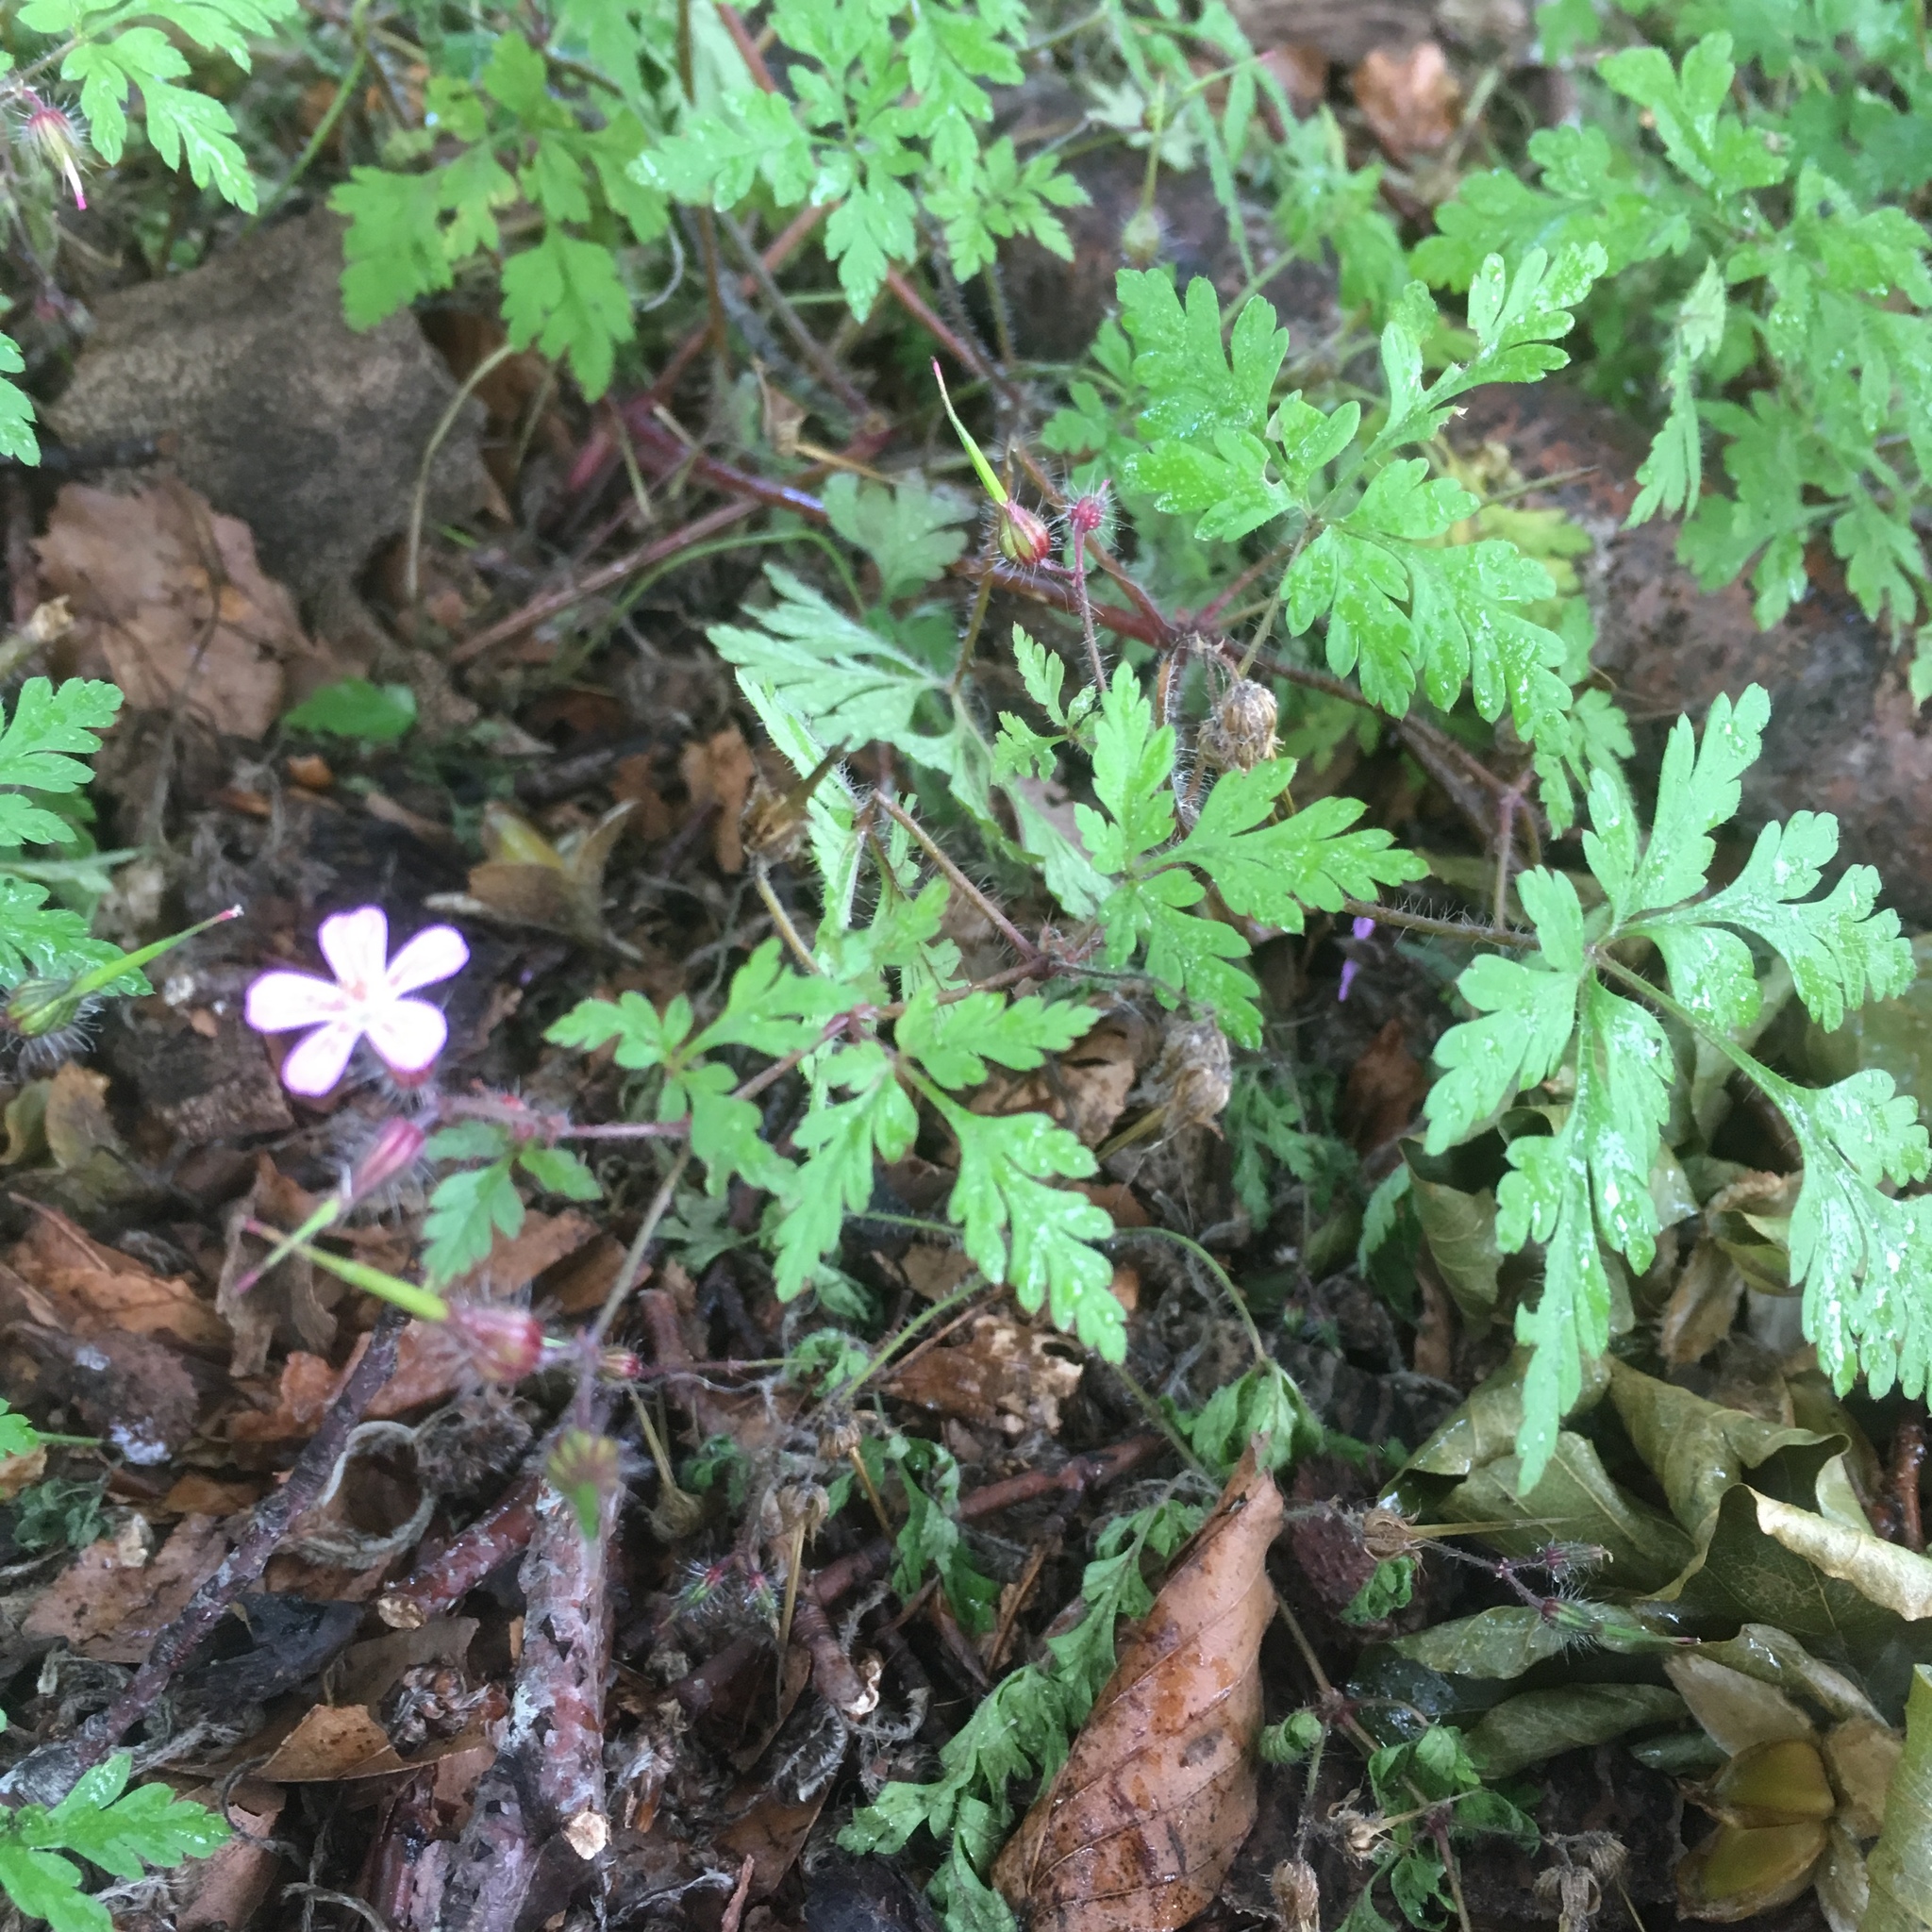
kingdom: Plantae
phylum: Tracheophyta
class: Magnoliopsida
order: Geraniales
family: Geraniaceae
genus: Geranium
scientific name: Geranium robertianum
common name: Herb-robert
